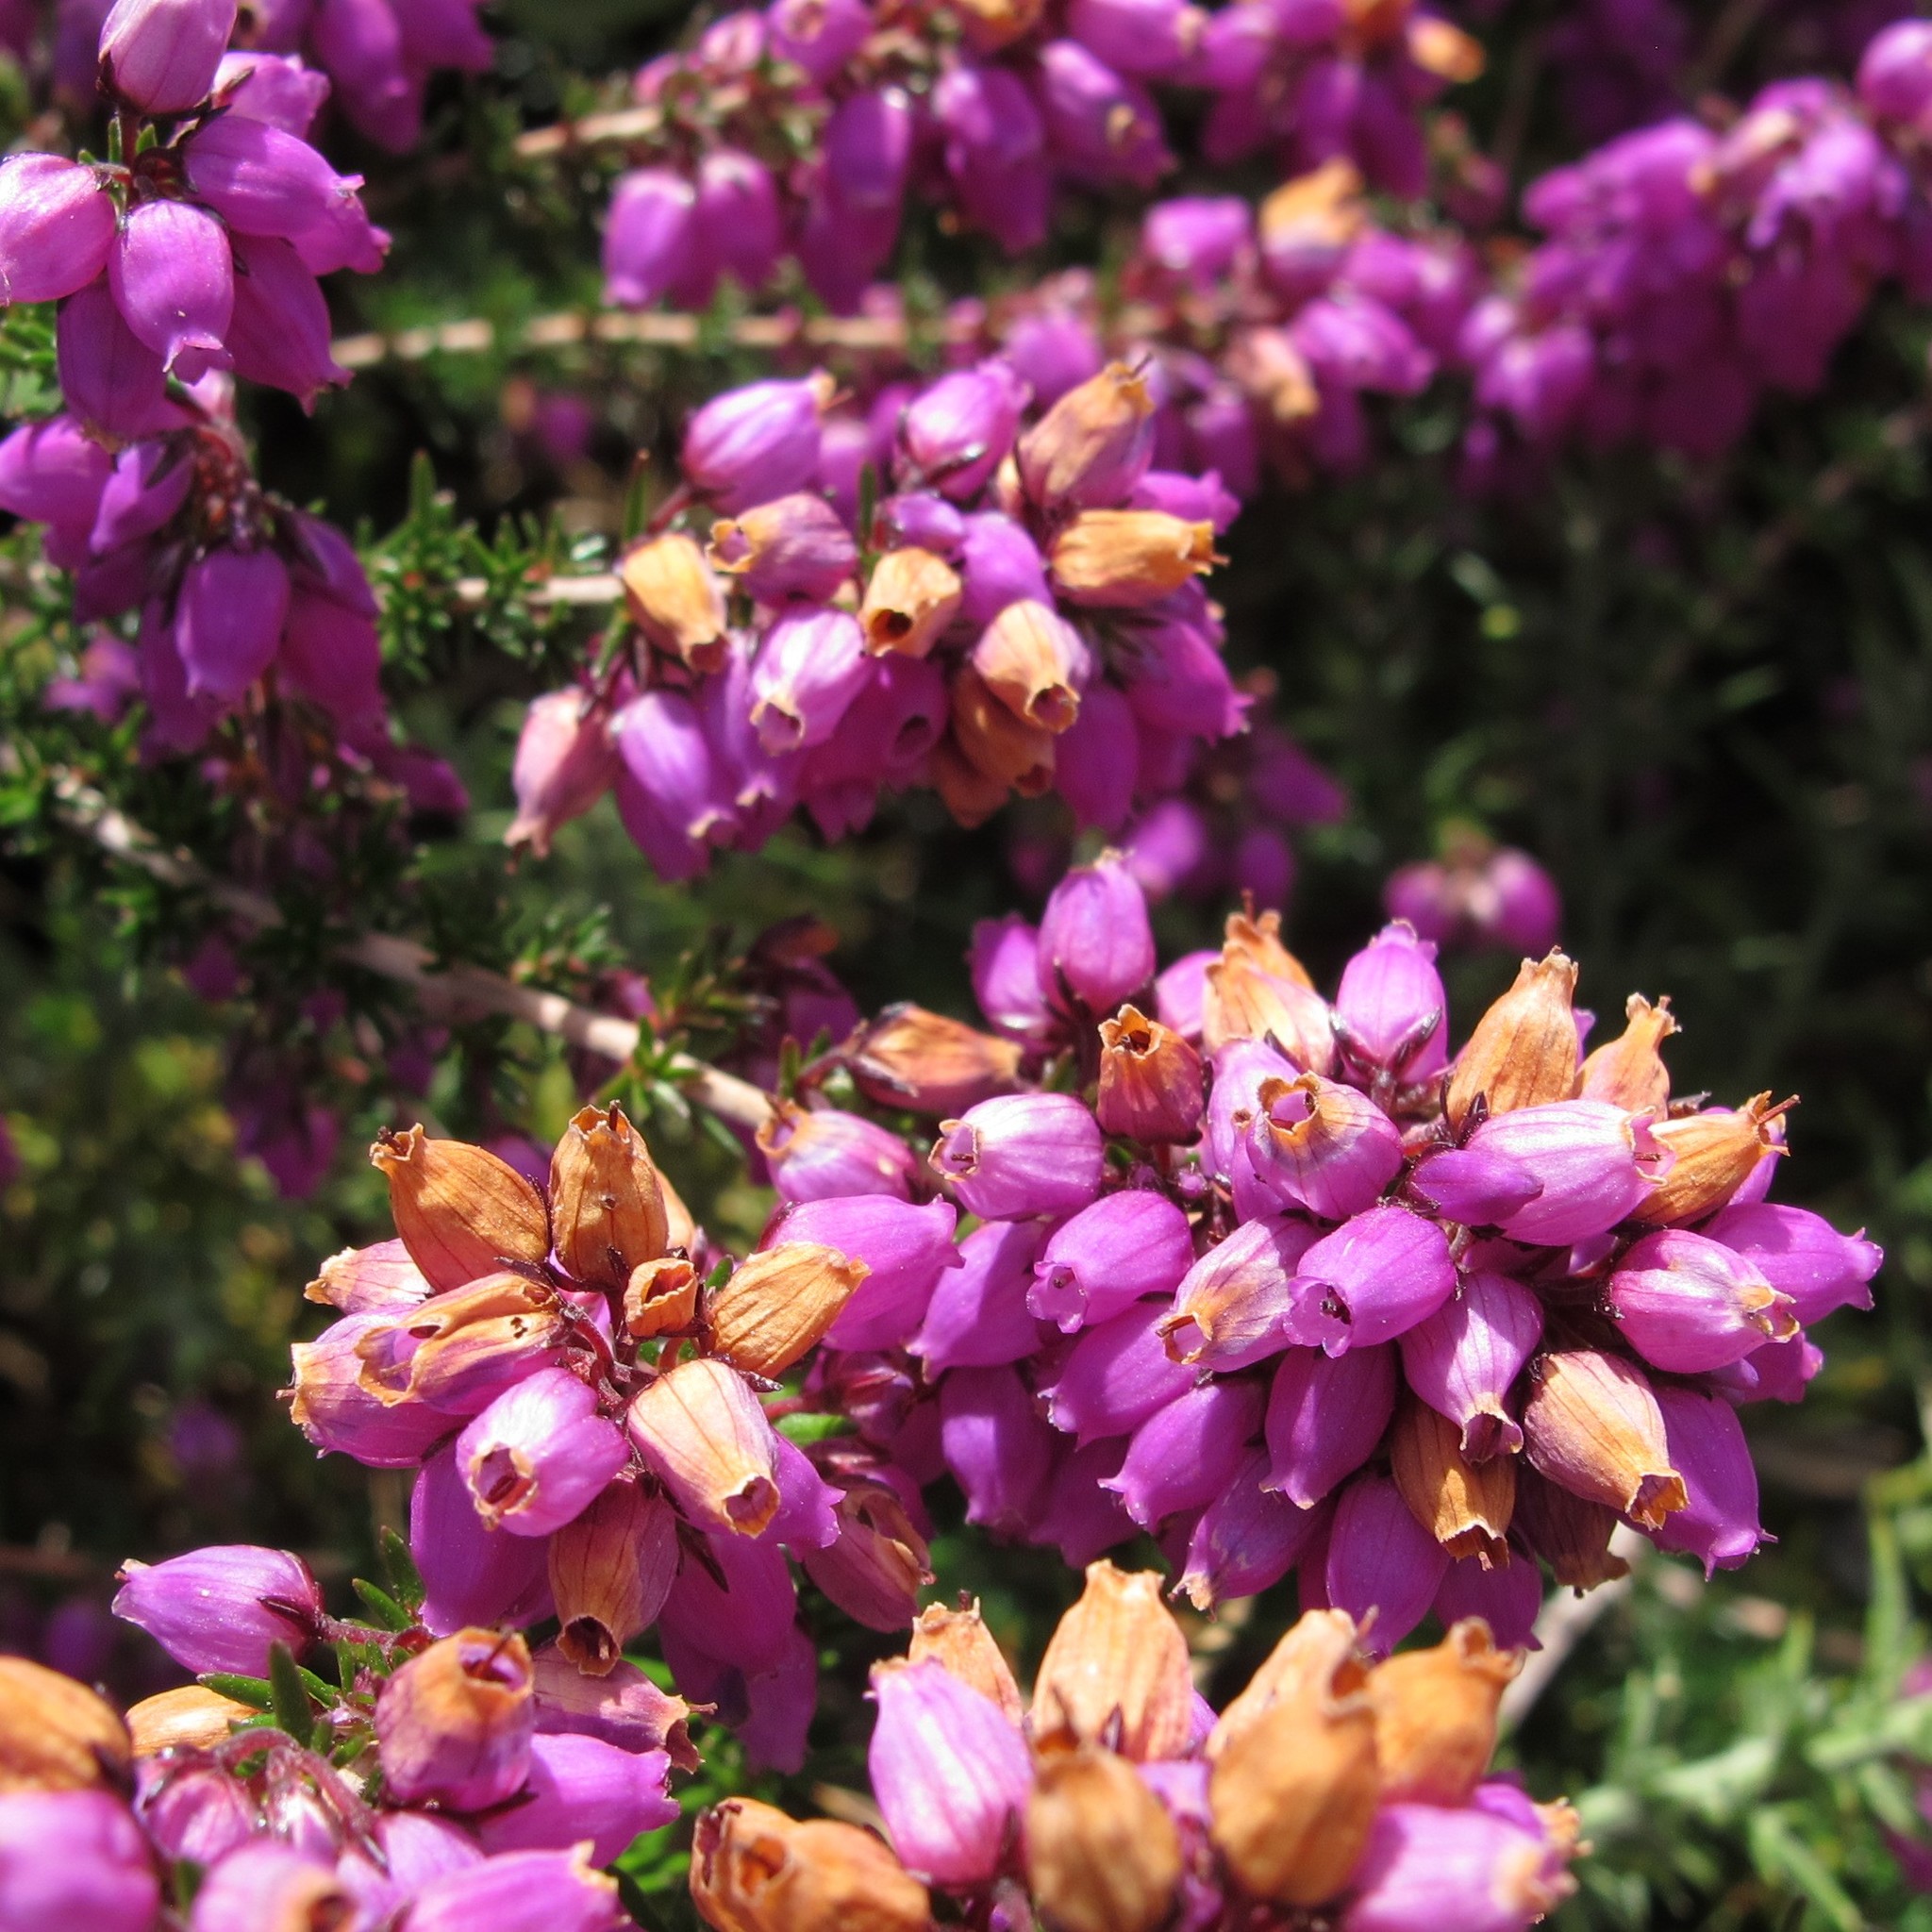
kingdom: Plantae
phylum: Tracheophyta
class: Magnoliopsida
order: Ericales
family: Ericaceae
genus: Erica
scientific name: Erica cinerea
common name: Bell heather
